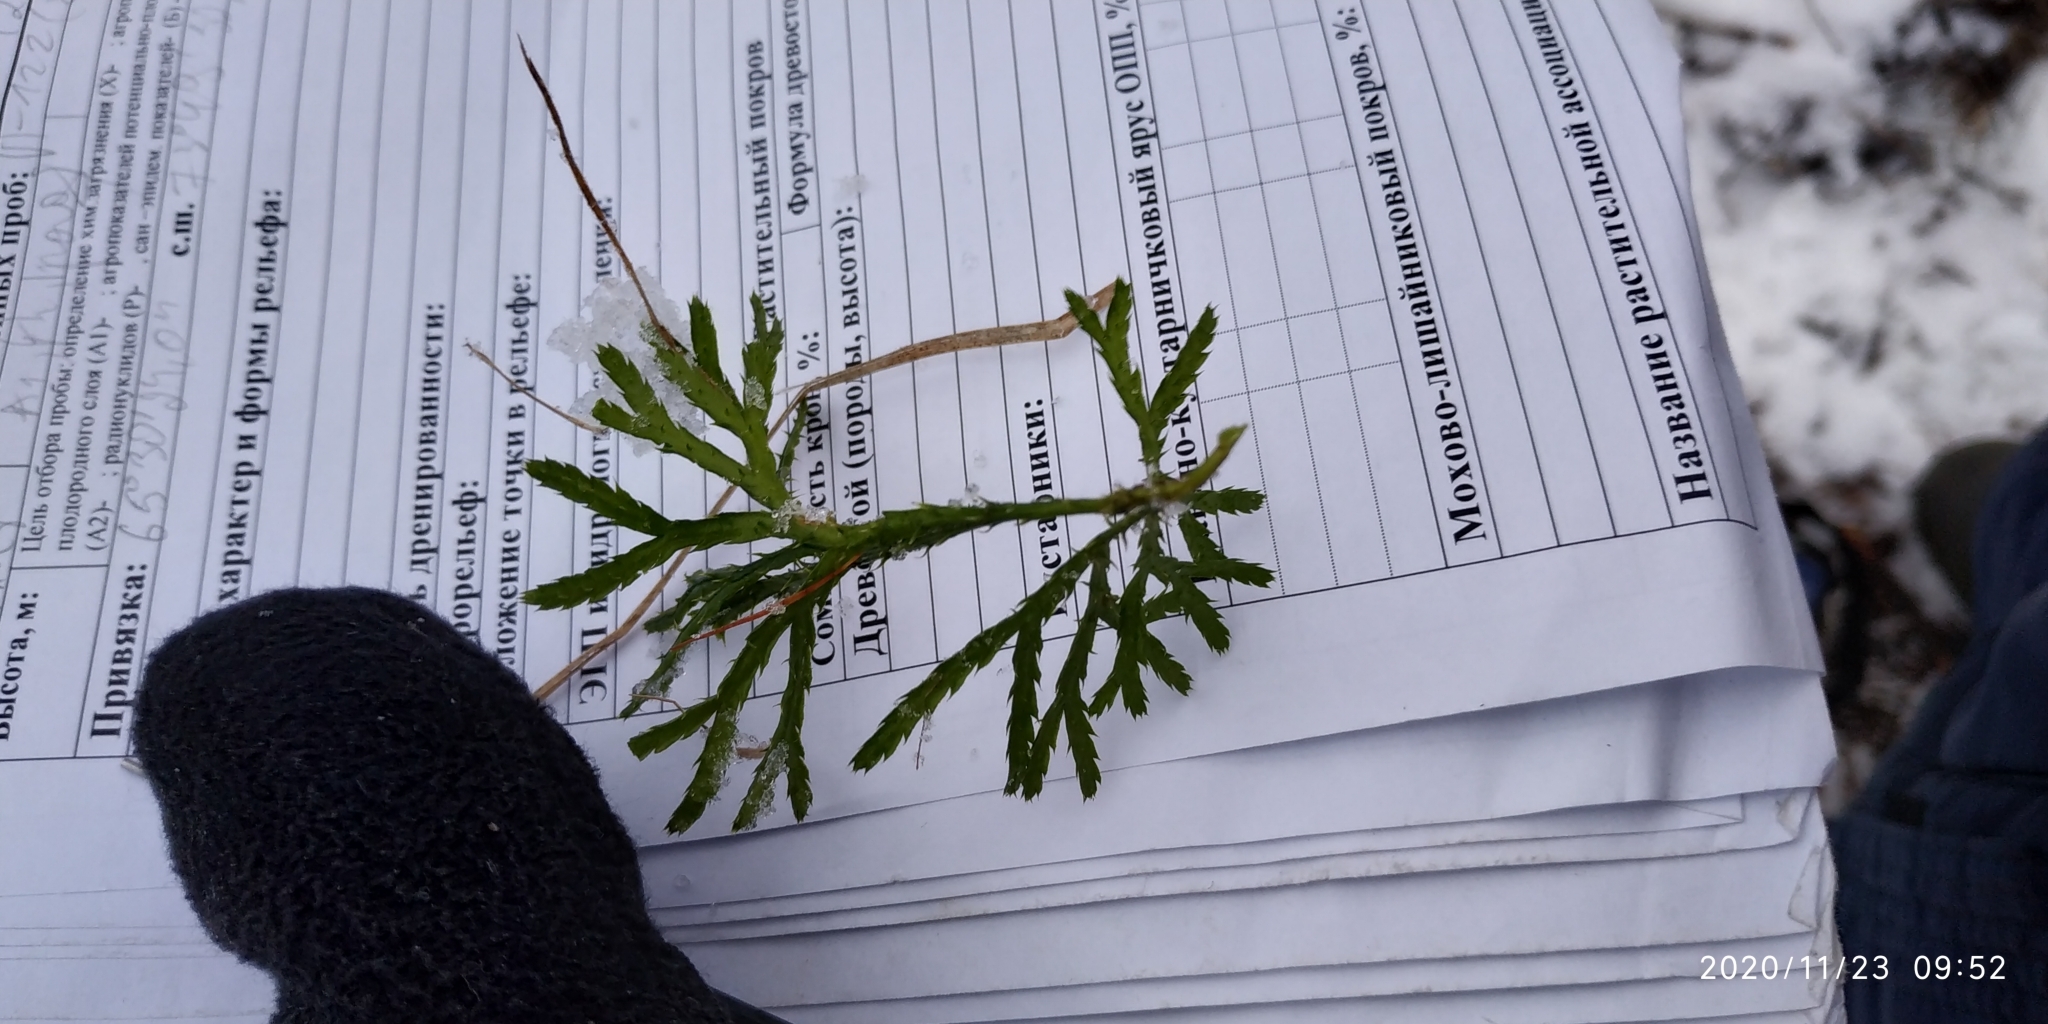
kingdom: Plantae
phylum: Tracheophyta
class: Lycopodiopsida
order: Lycopodiales
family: Lycopodiaceae
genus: Diphasiastrum
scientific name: Diphasiastrum complanatum
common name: Northern running-pine
